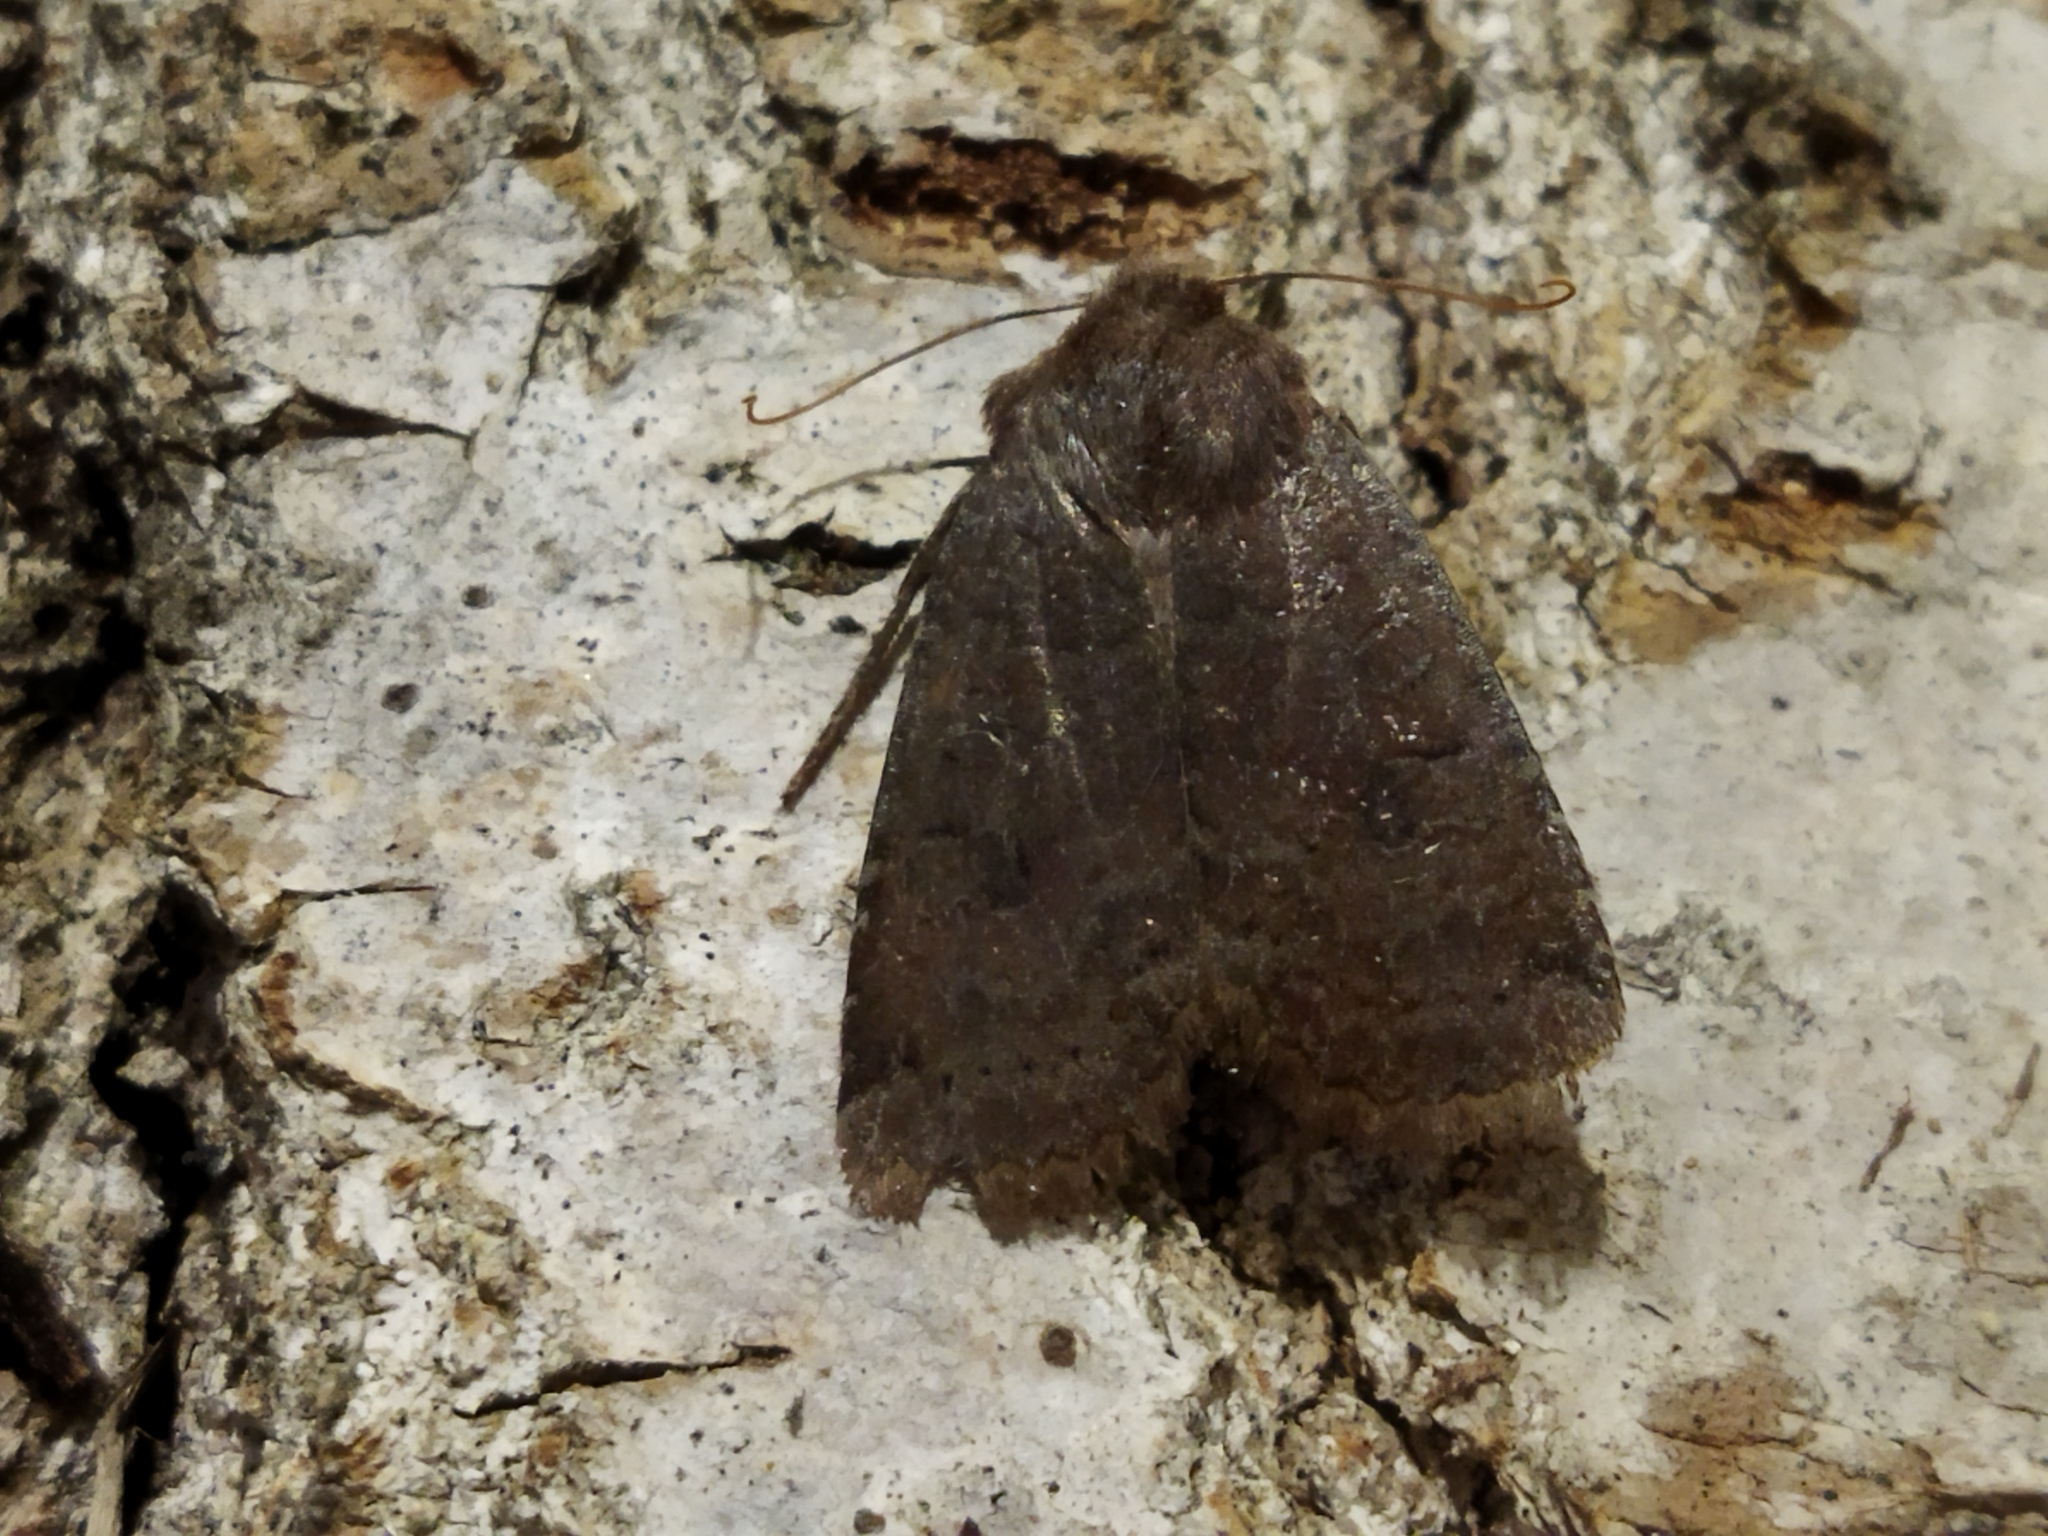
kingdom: Animalia
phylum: Arthropoda
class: Insecta
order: Lepidoptera
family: Noctuidae
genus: Conistra
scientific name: Conistra vaccinii
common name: Chestnut
